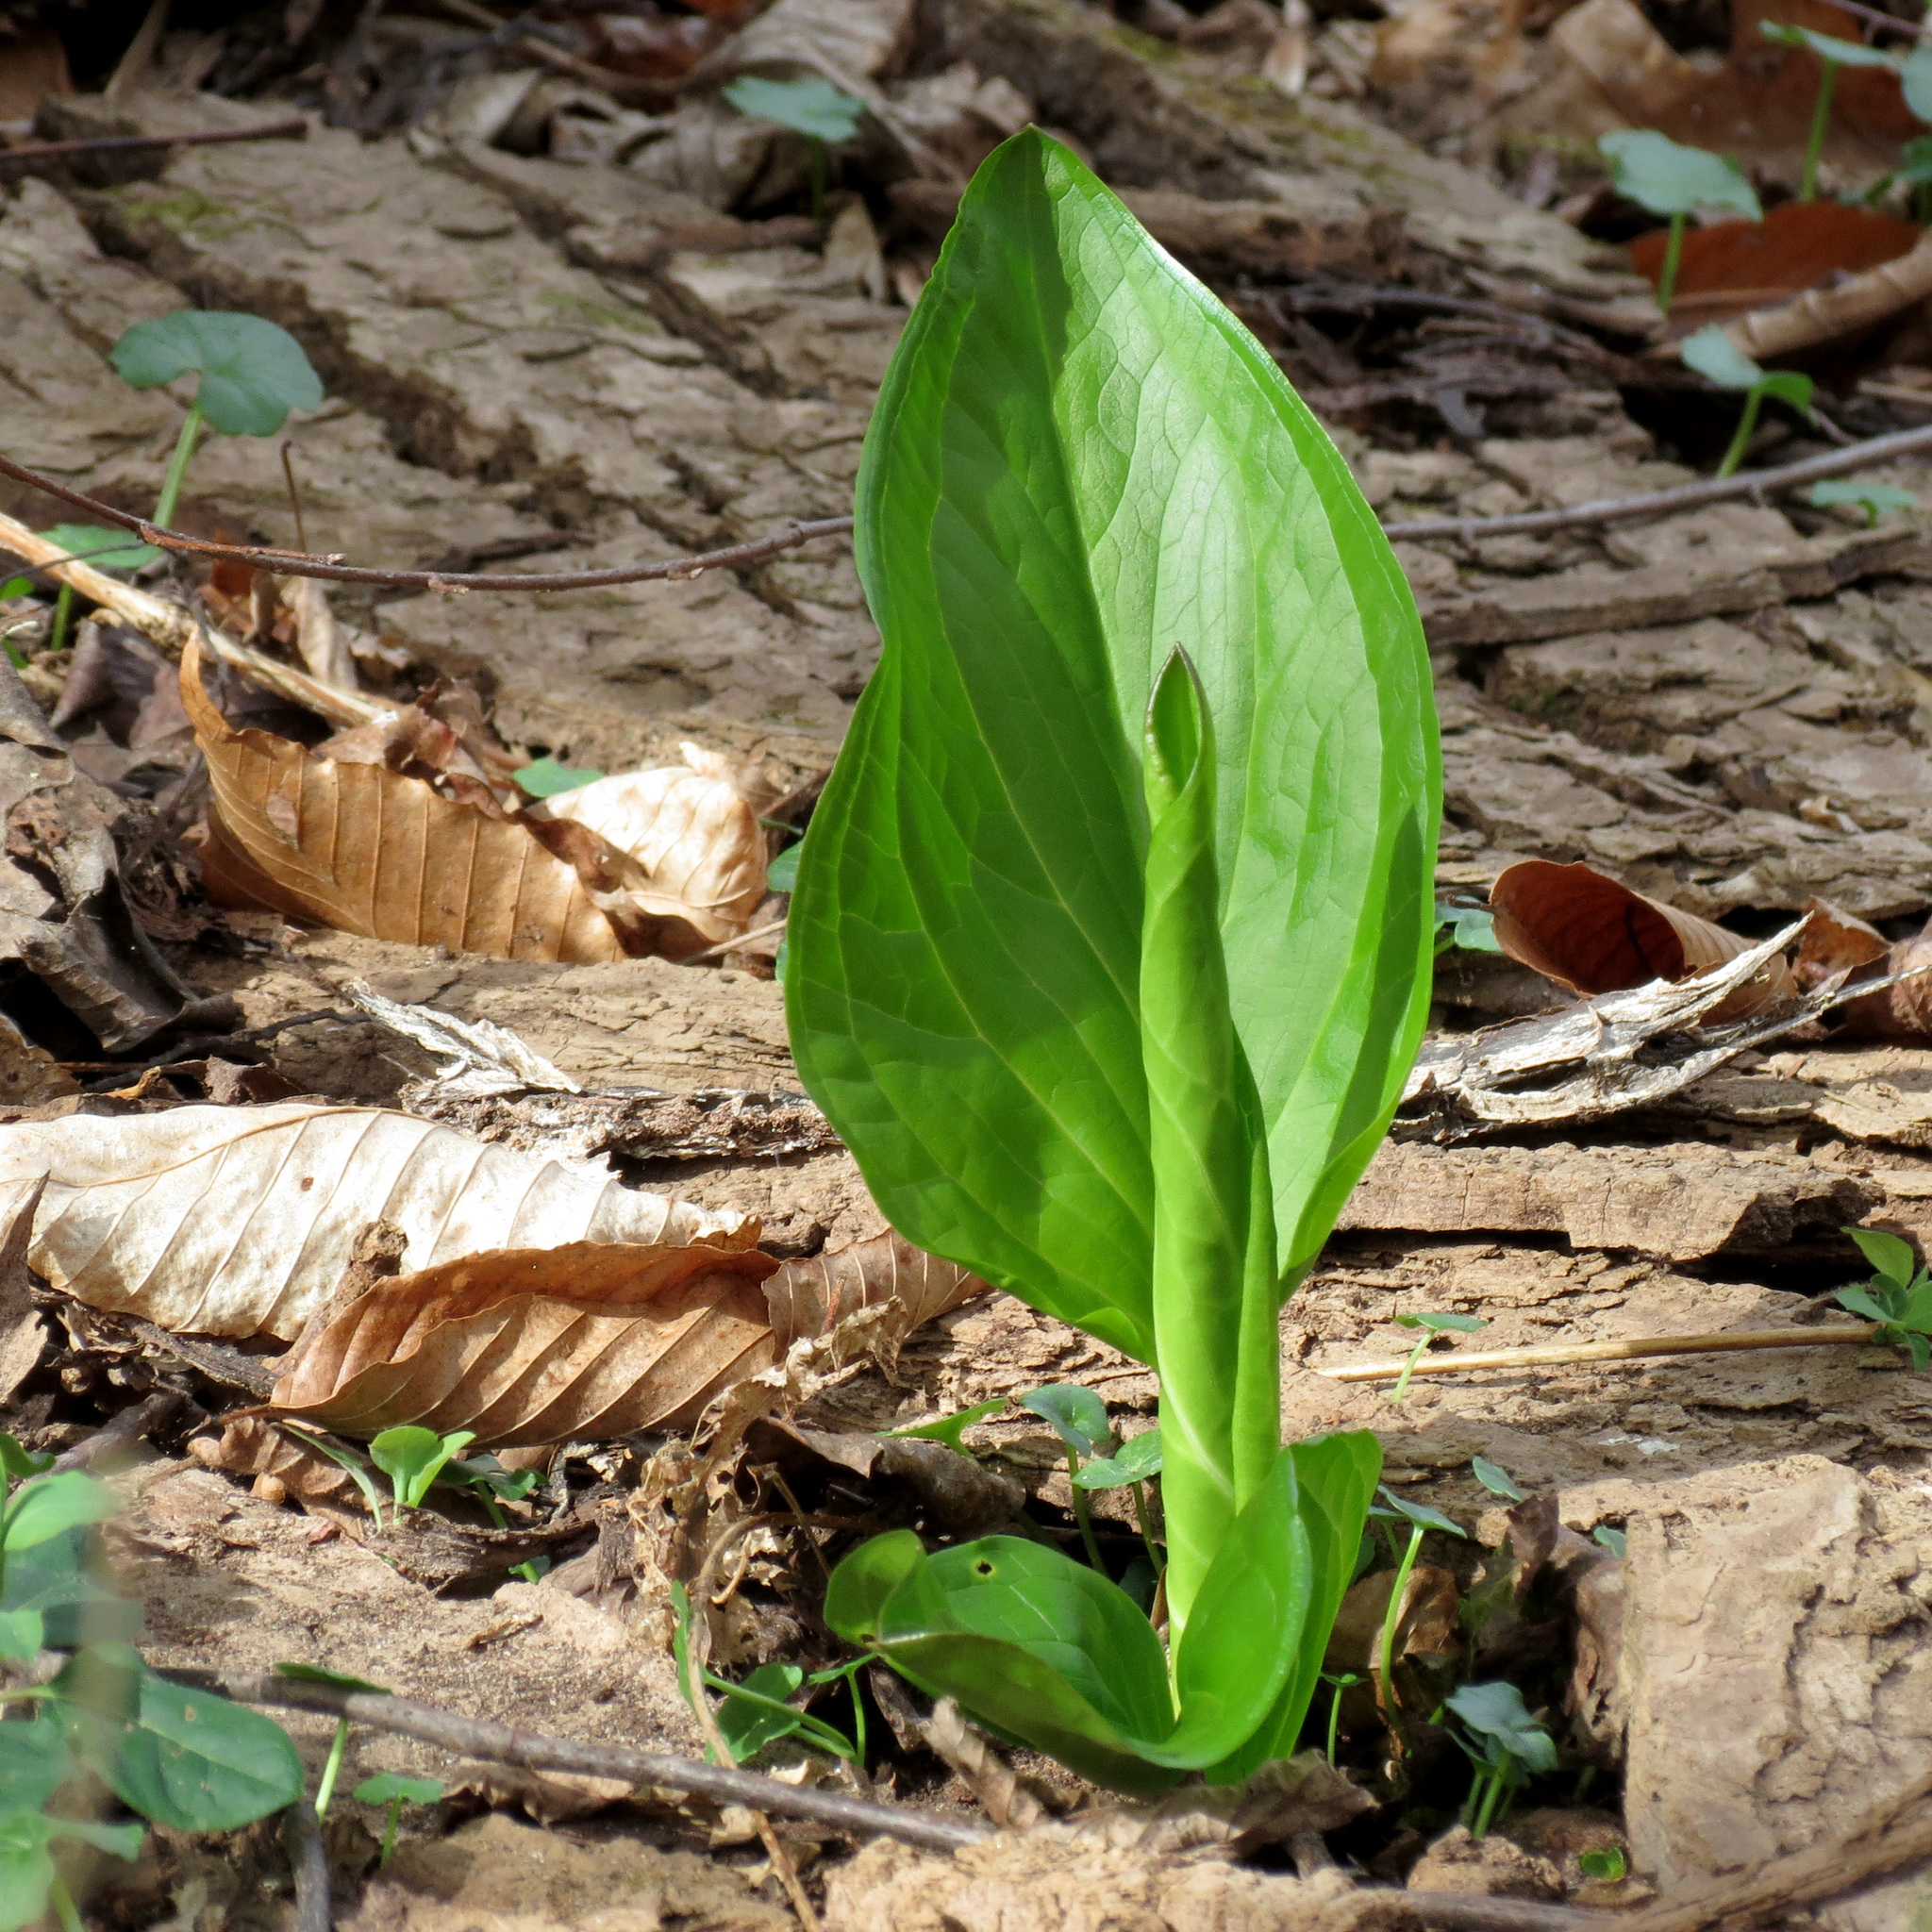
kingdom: Plantae
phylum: Tracheophyta
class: Liliopsida
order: Alismatales
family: Araceae
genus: Symplocarpus
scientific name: Symplocarpus foetidus
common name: Eastern skunk cabbage
